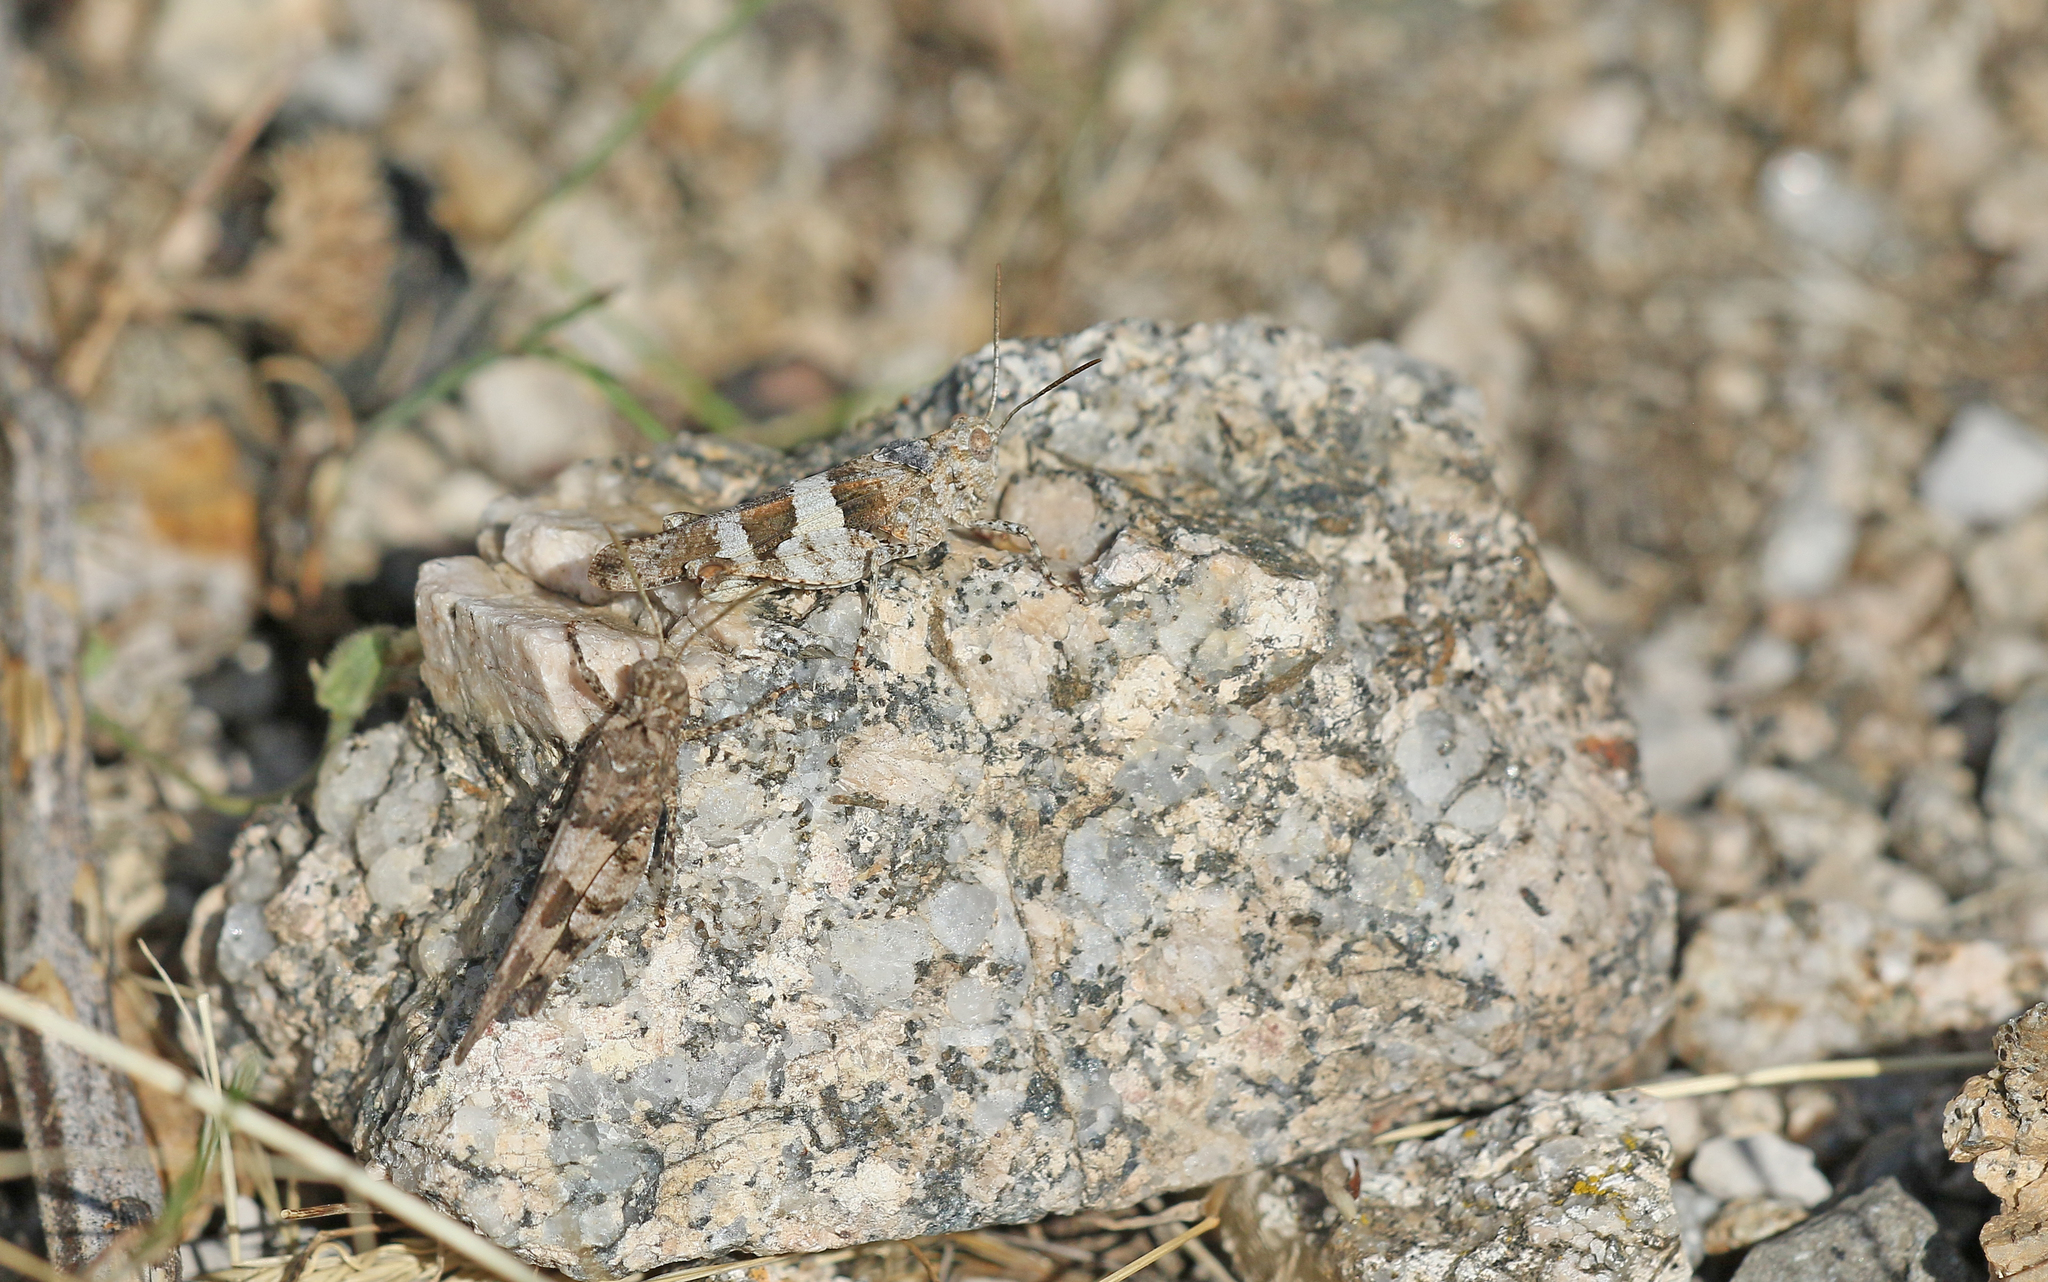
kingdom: Animalia
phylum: Arthropoda
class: Insecta
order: Orthoptera
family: Acrididae
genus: Oedipoda
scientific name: Oedipoda caerulescens
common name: Blue-winged grasshopper
